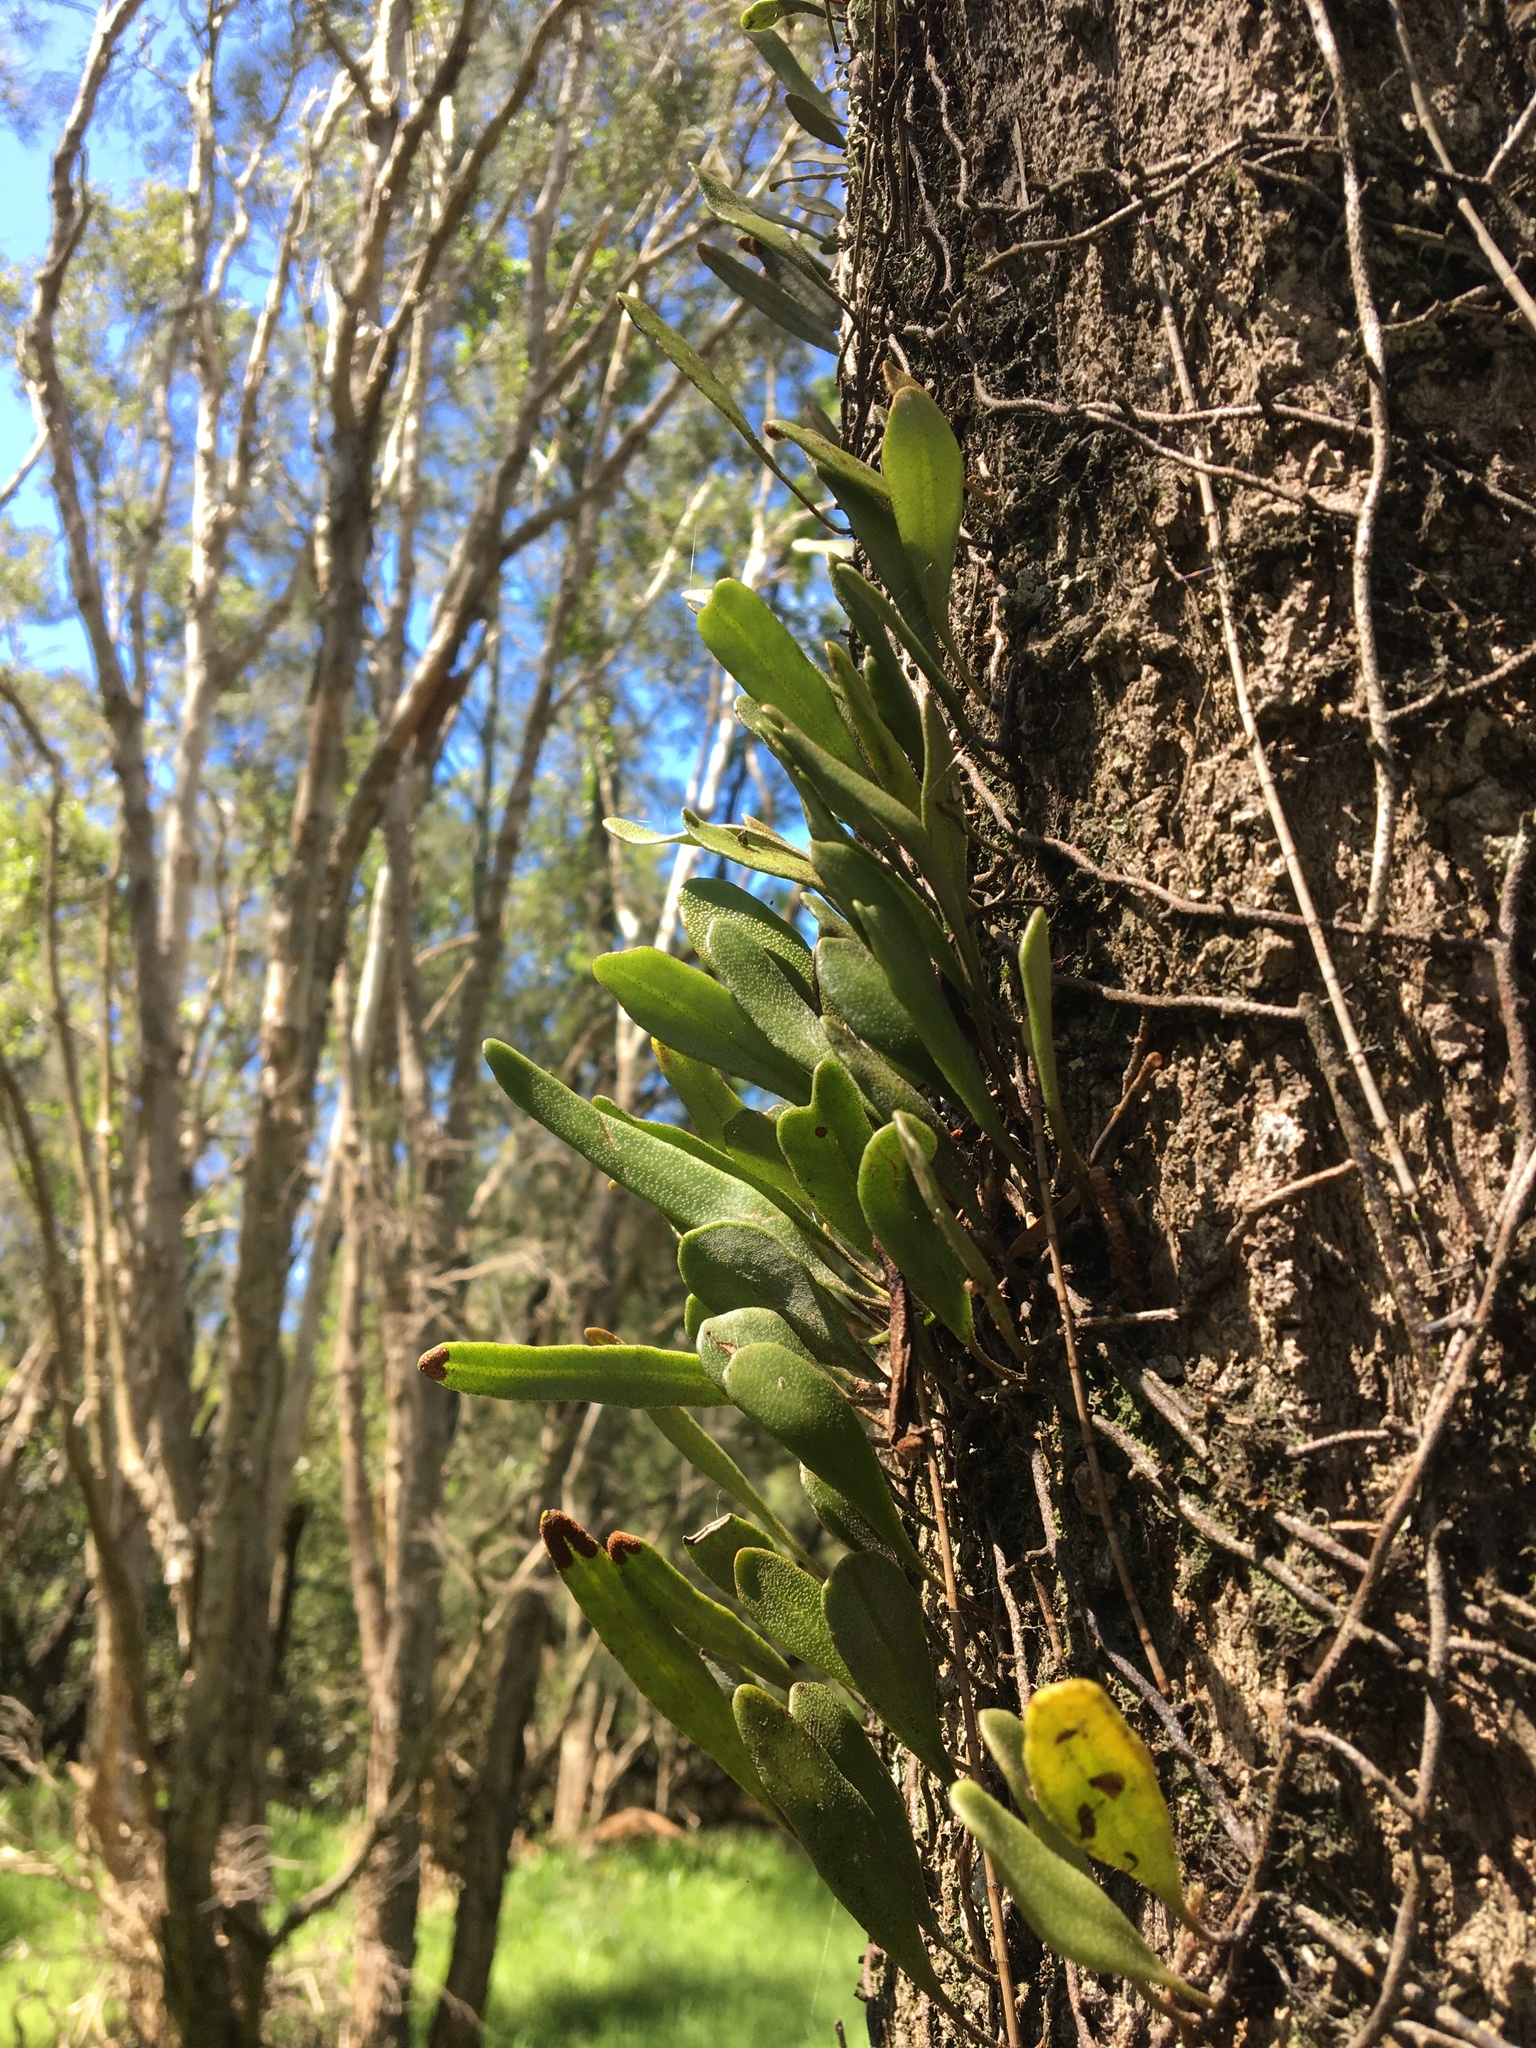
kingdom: Plantae
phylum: Tracheophyta
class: Polypodiopsida
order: Polypodiales
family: Polypodiaceae
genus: Pyrrosia
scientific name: Pyrrosia confluens
